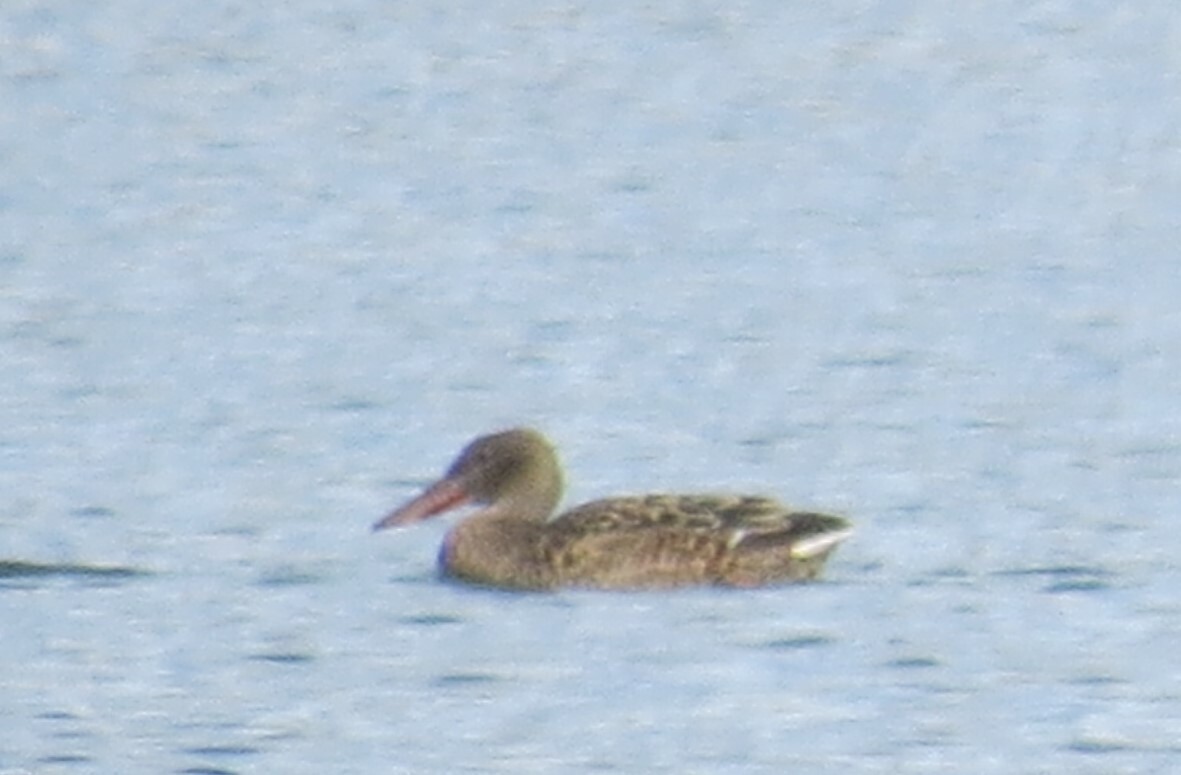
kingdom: Animalia
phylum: Chordata
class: Aves
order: Anseriformes
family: Anatidae
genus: Spatula
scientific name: Spatula clypeata
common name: Northern shoveler
